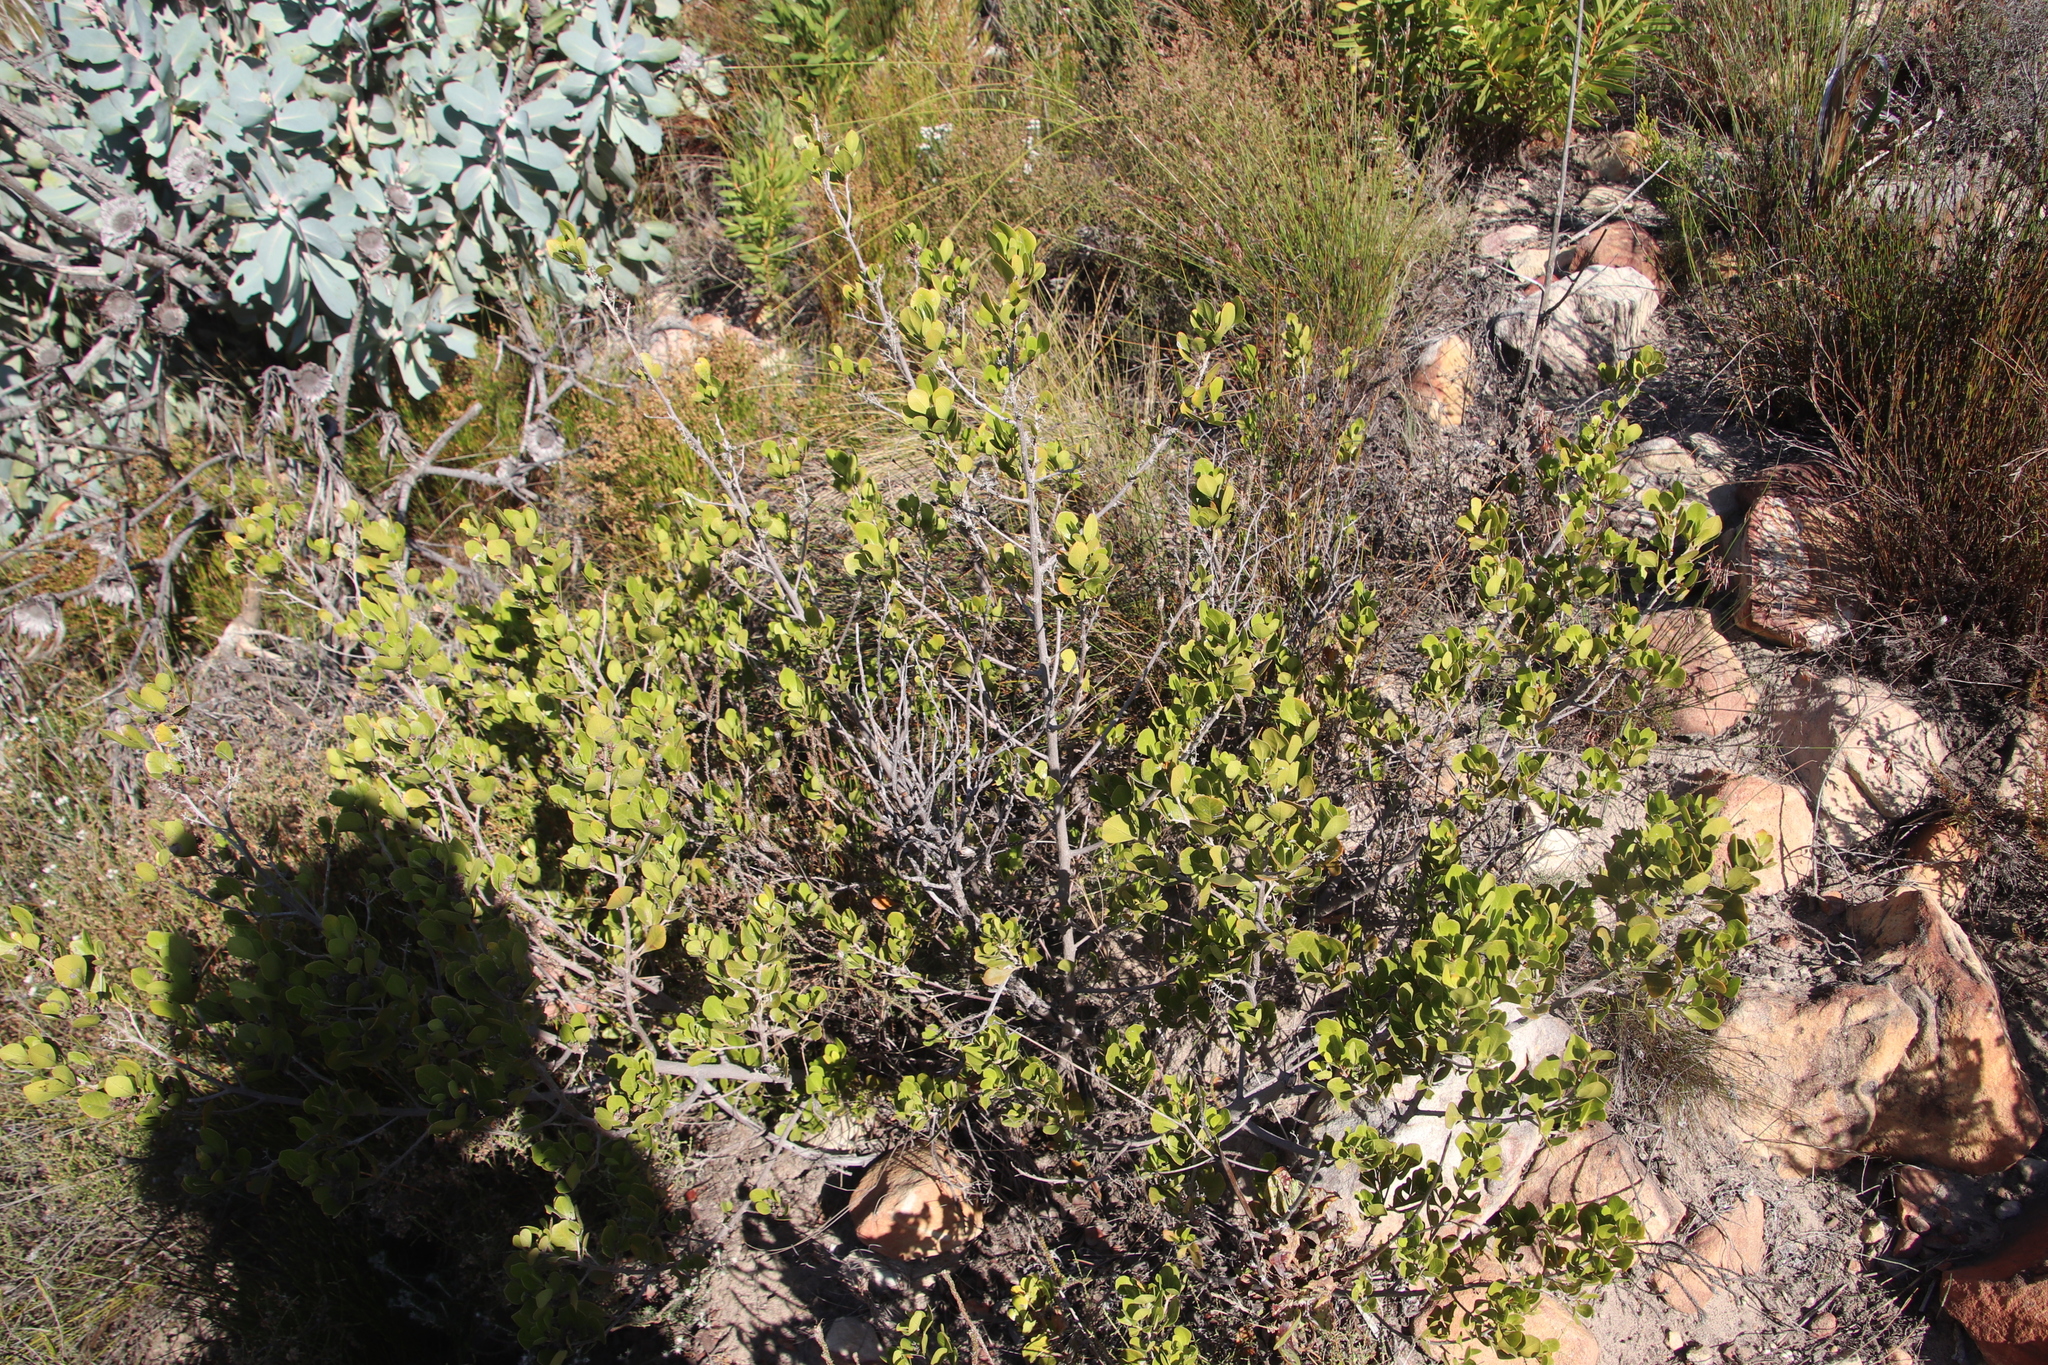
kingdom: Plantae
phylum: Tracheophyta
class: Magnoliopsida
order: Sapindales
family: Anacardiaceae
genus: Searsia
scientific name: Searsia lucida
